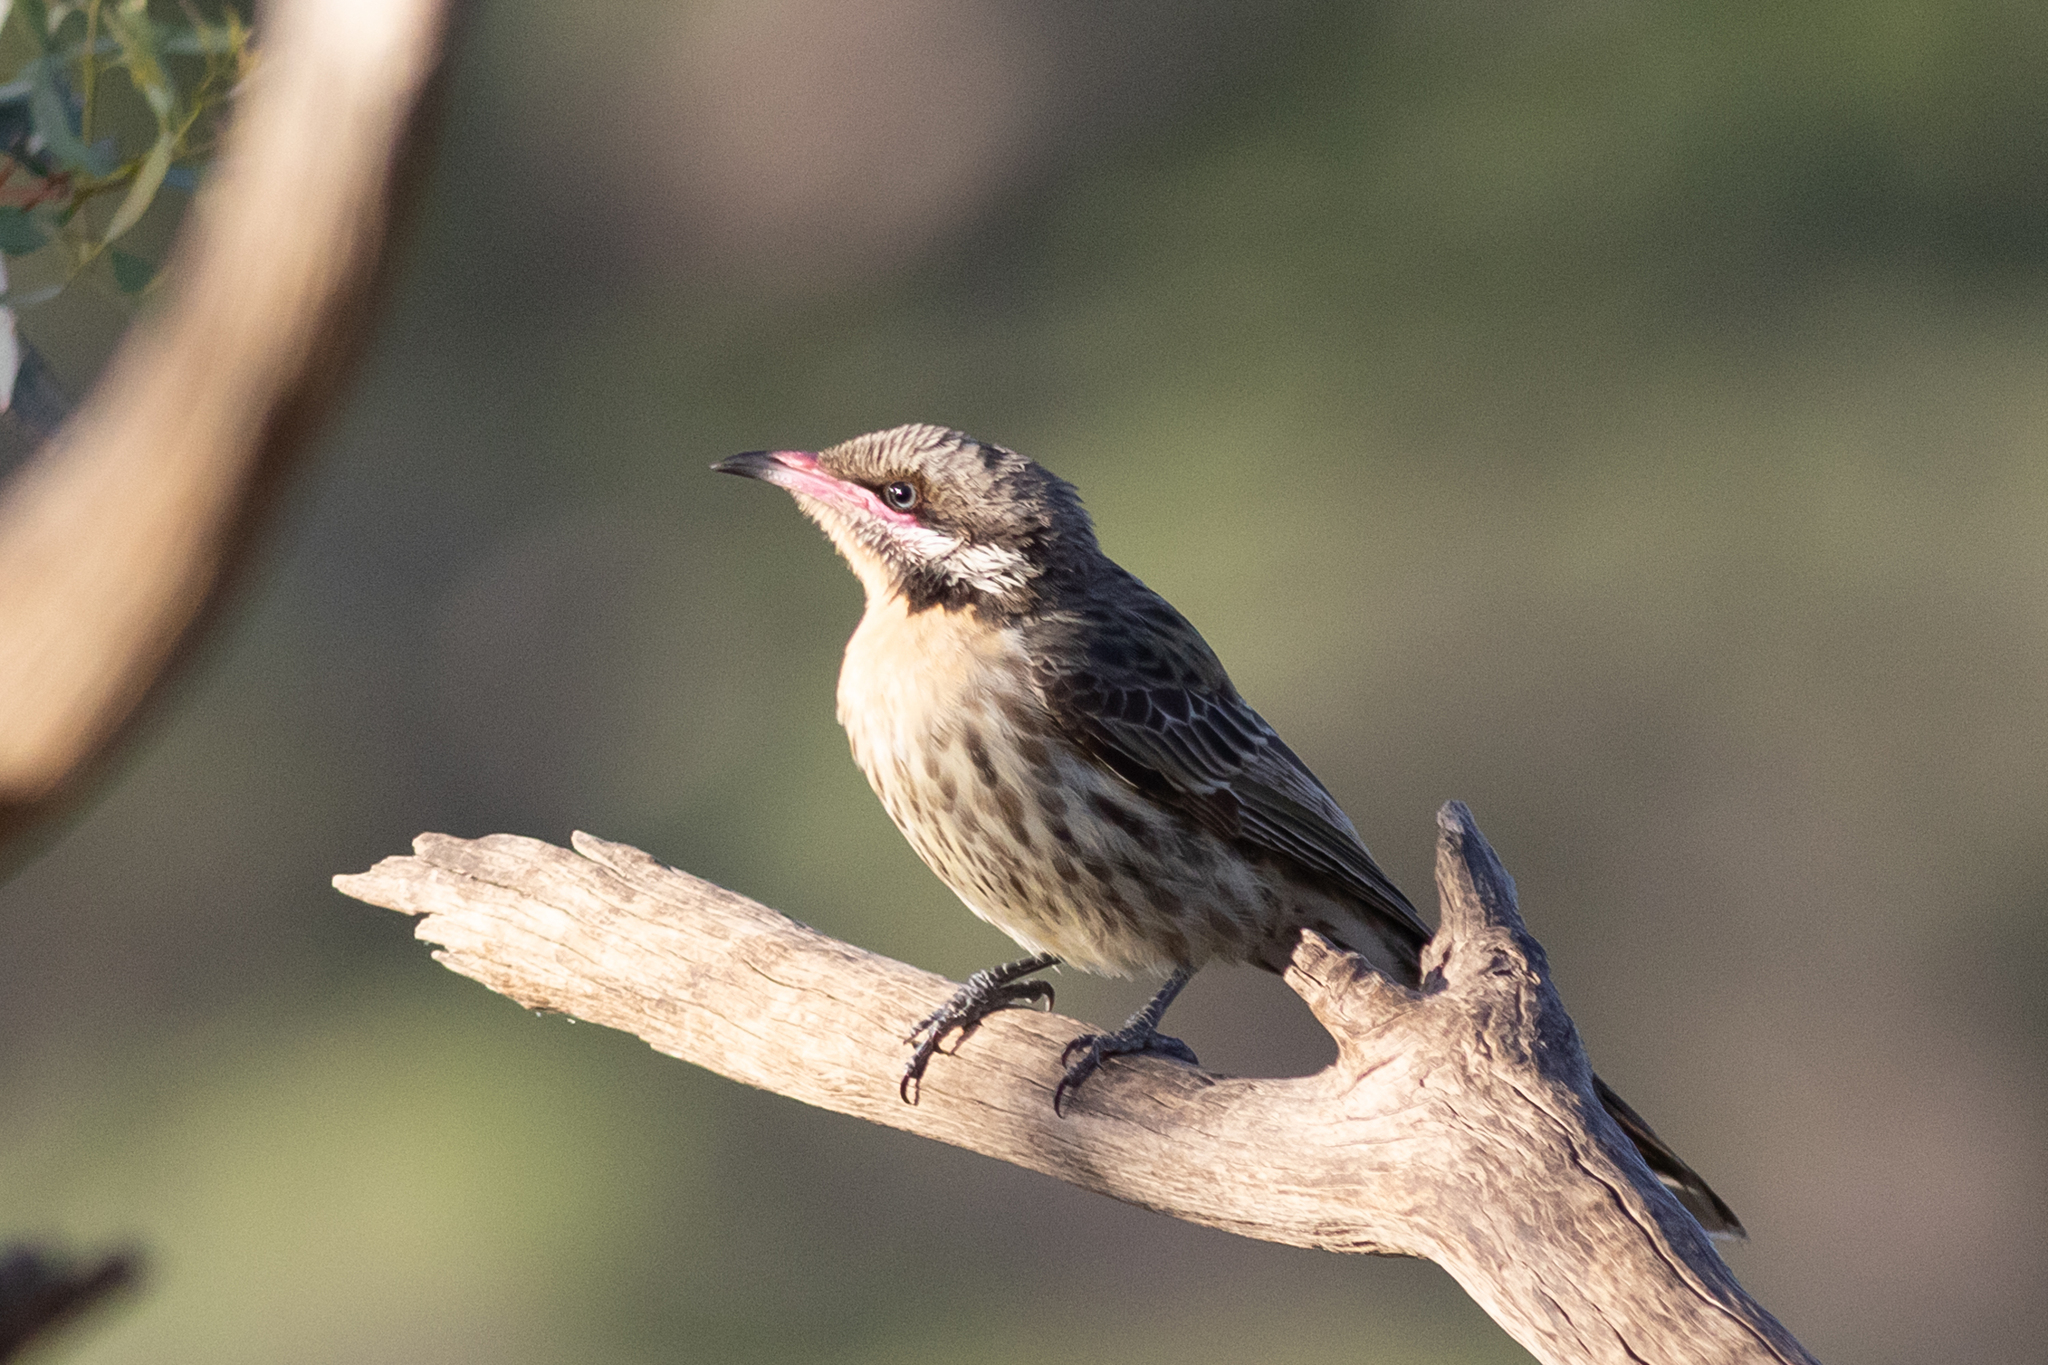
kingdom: Animalia
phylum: Chordata
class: Aves
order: Passeriformes
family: Meliphagidae
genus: Acanthagenys
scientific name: Acanthagenys rufogularis
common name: Spiny-cheeked honeyeater
